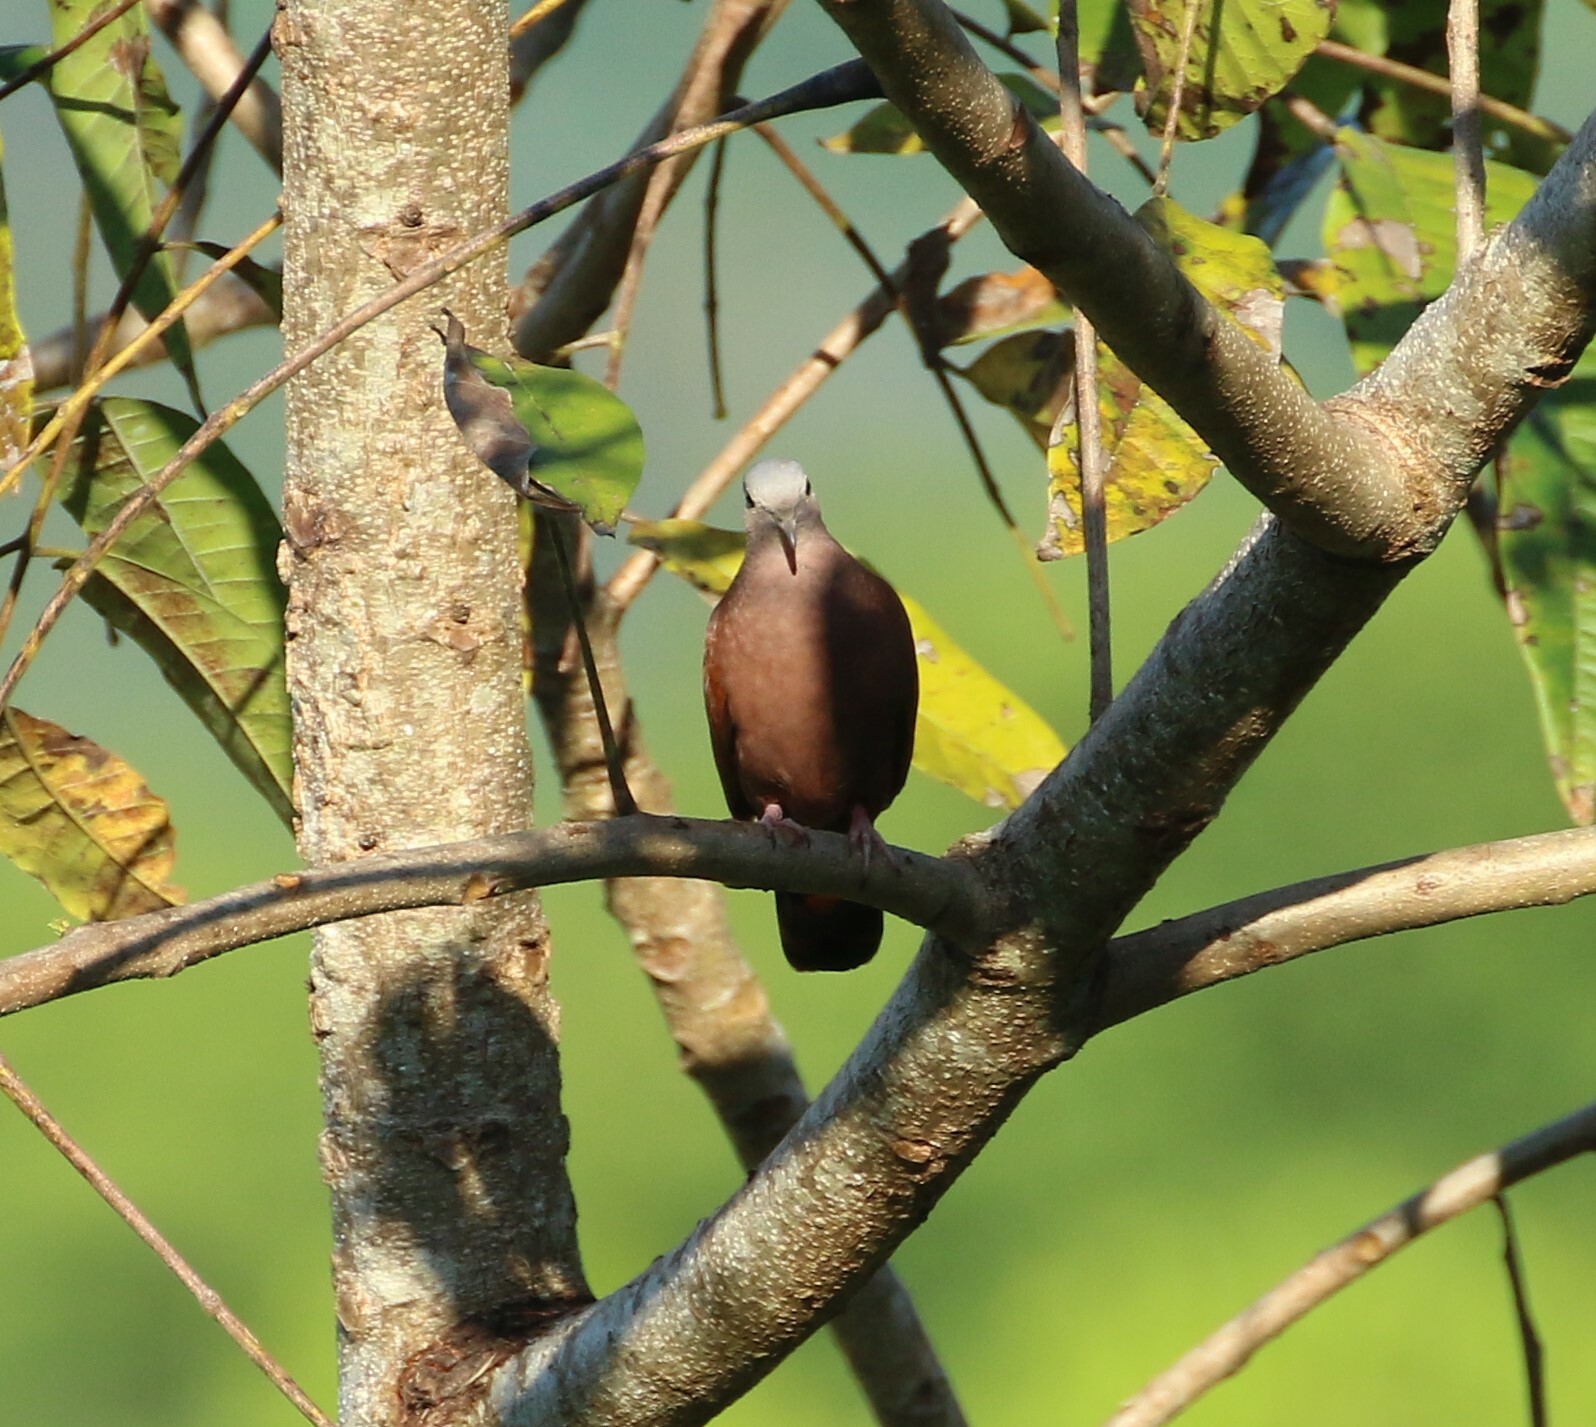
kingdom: Animalia
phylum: Chordata
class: Aves
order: Columbiformes
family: Columbidae
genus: Columbina
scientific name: Columbina talpacoti
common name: Ruddy ground dove
